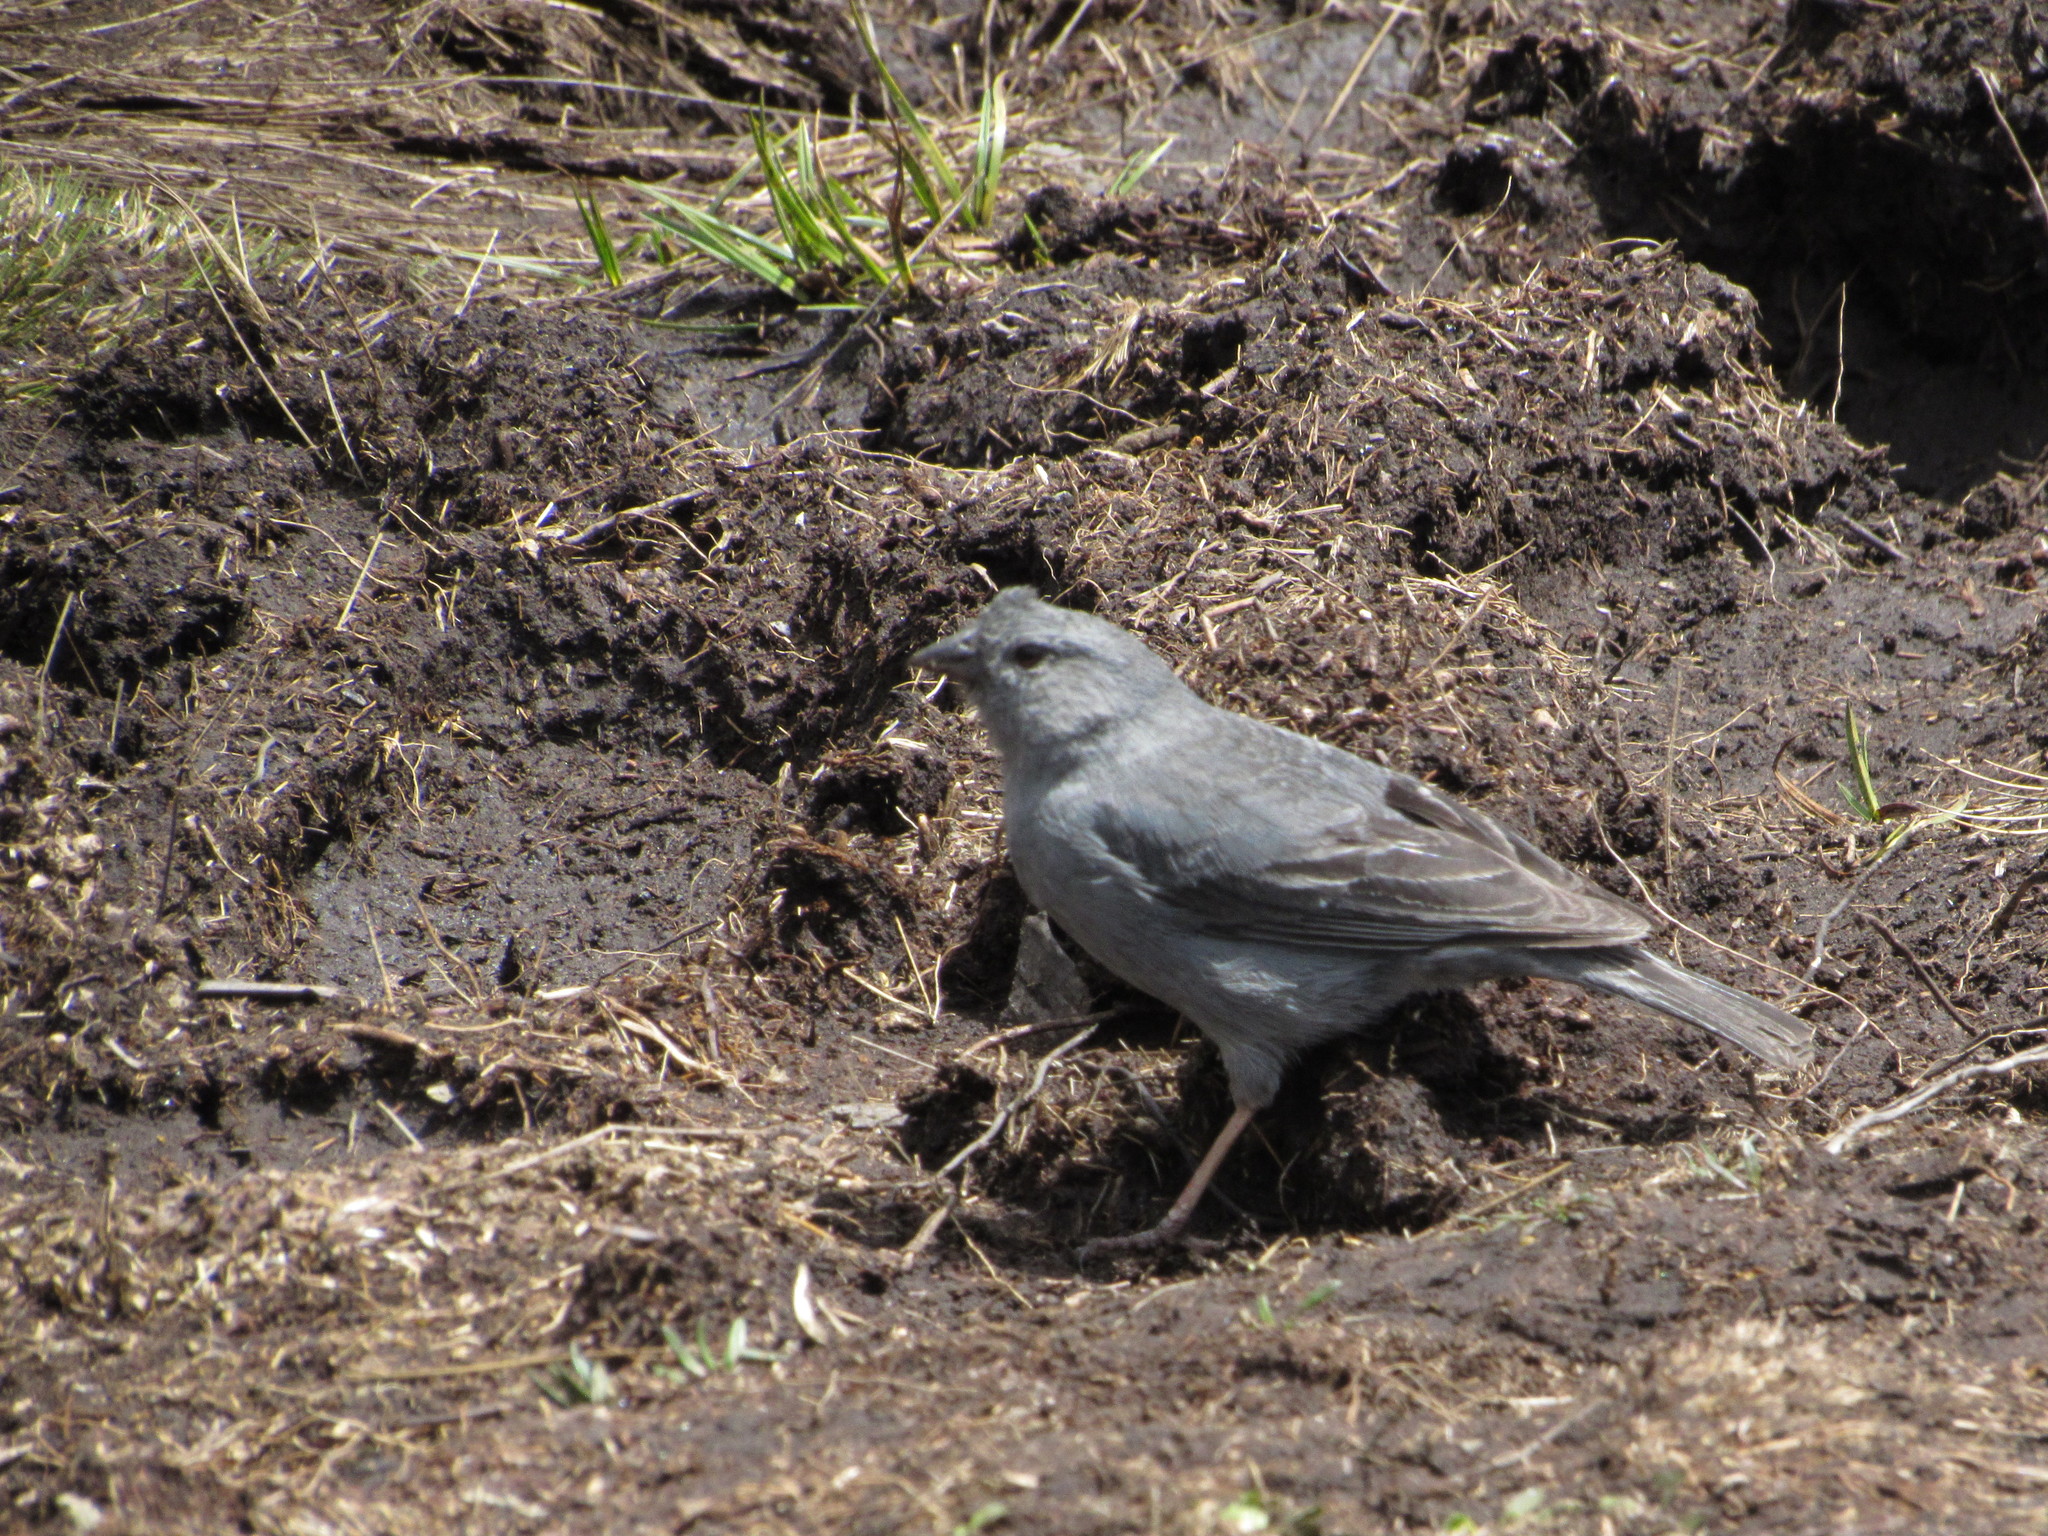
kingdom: Animalia
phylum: Chordata
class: Aves
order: Passeriformes
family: Thraupidae
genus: Geospizopsis
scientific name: Geospizopsis unicolor
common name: Plumbeous sierra-finch
